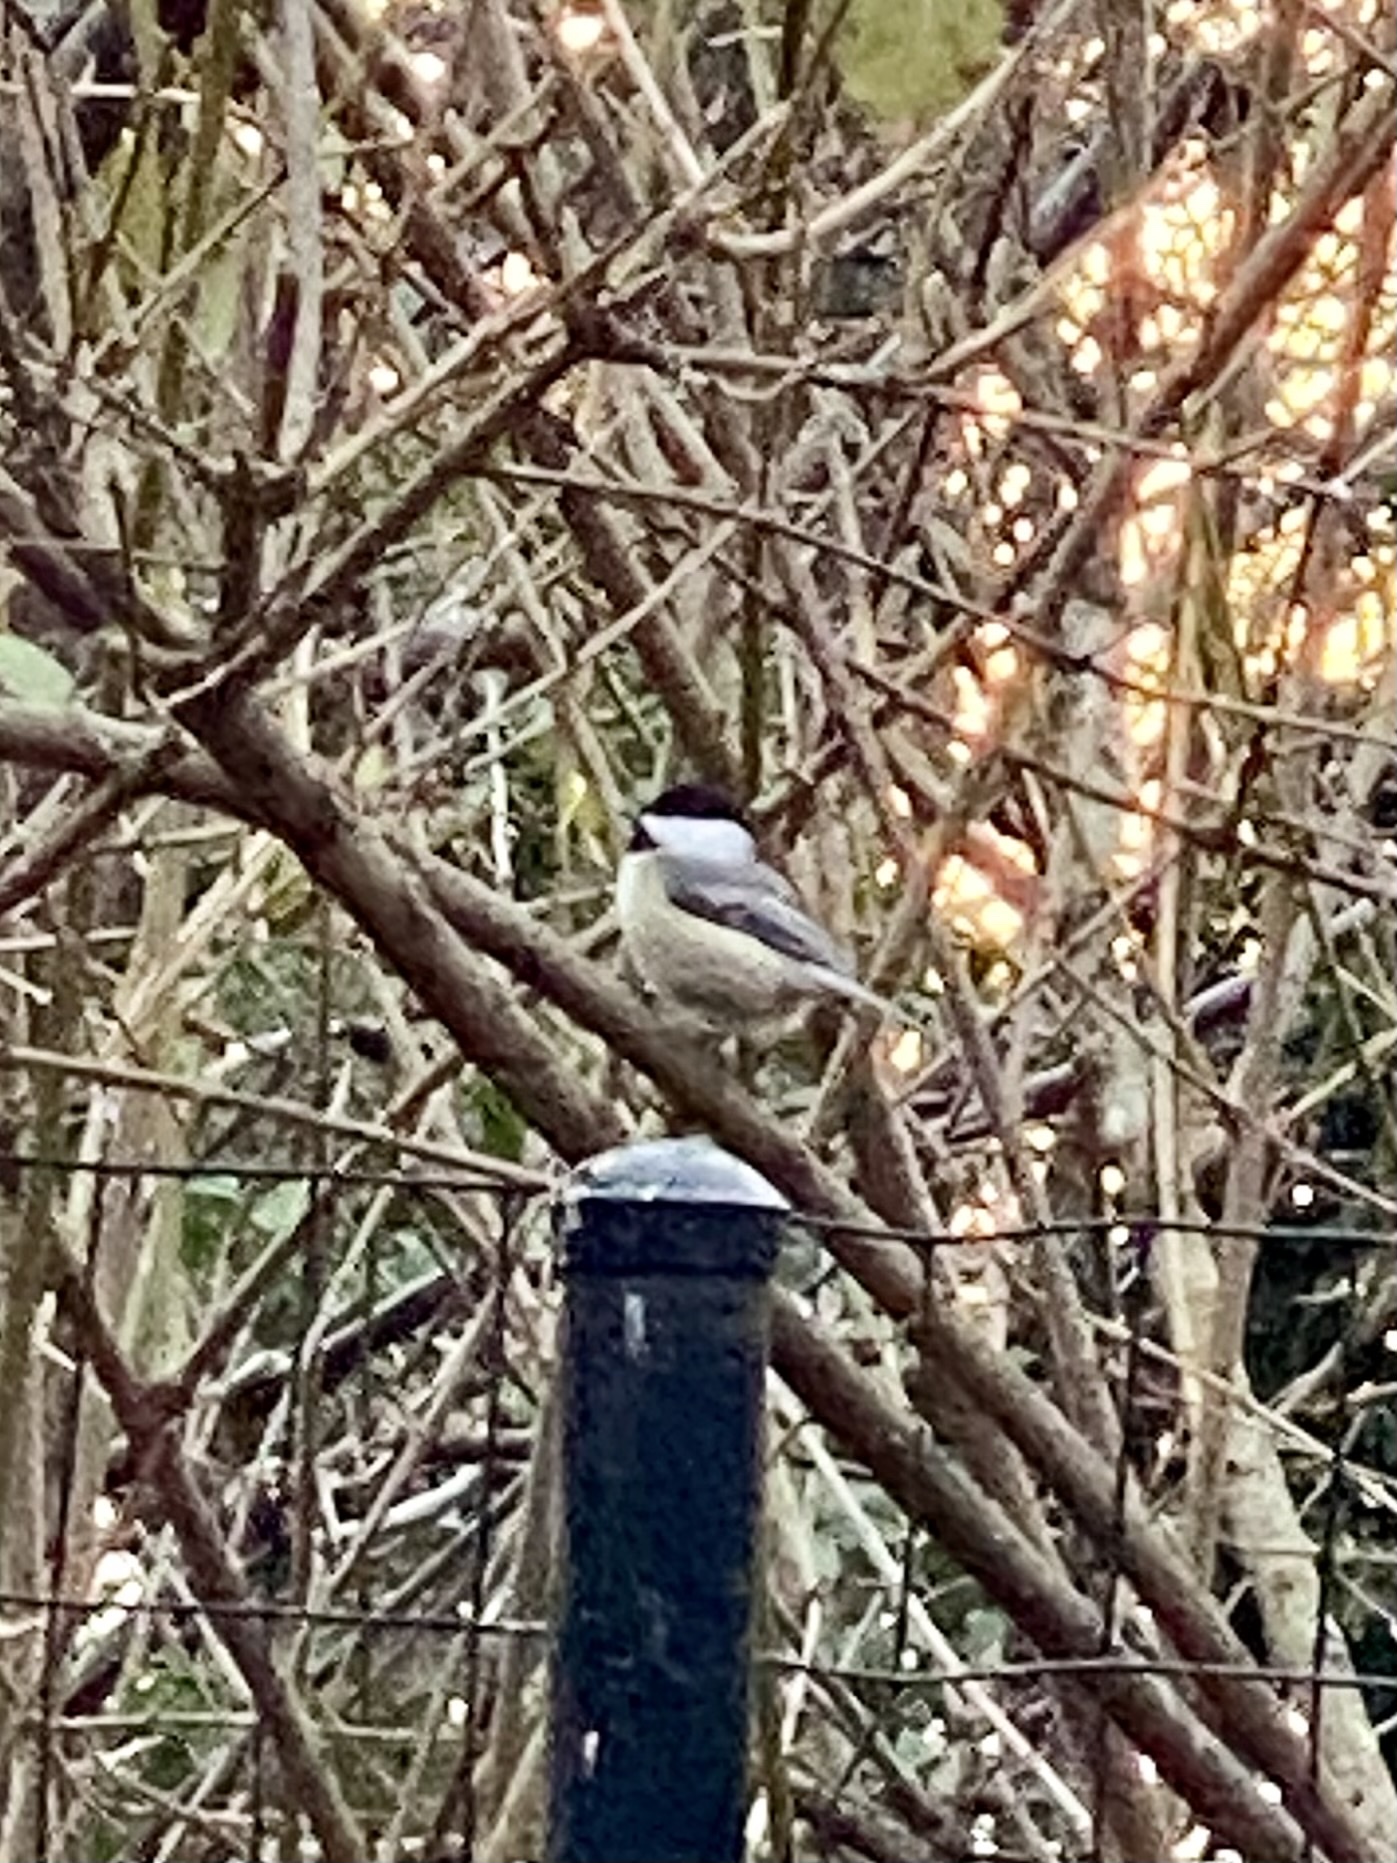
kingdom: Animalia
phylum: Chordata
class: Aves
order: Passeriformes
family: Paridae
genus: Poecile
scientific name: Poecile atricapillus
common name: Black-capped chickadee
